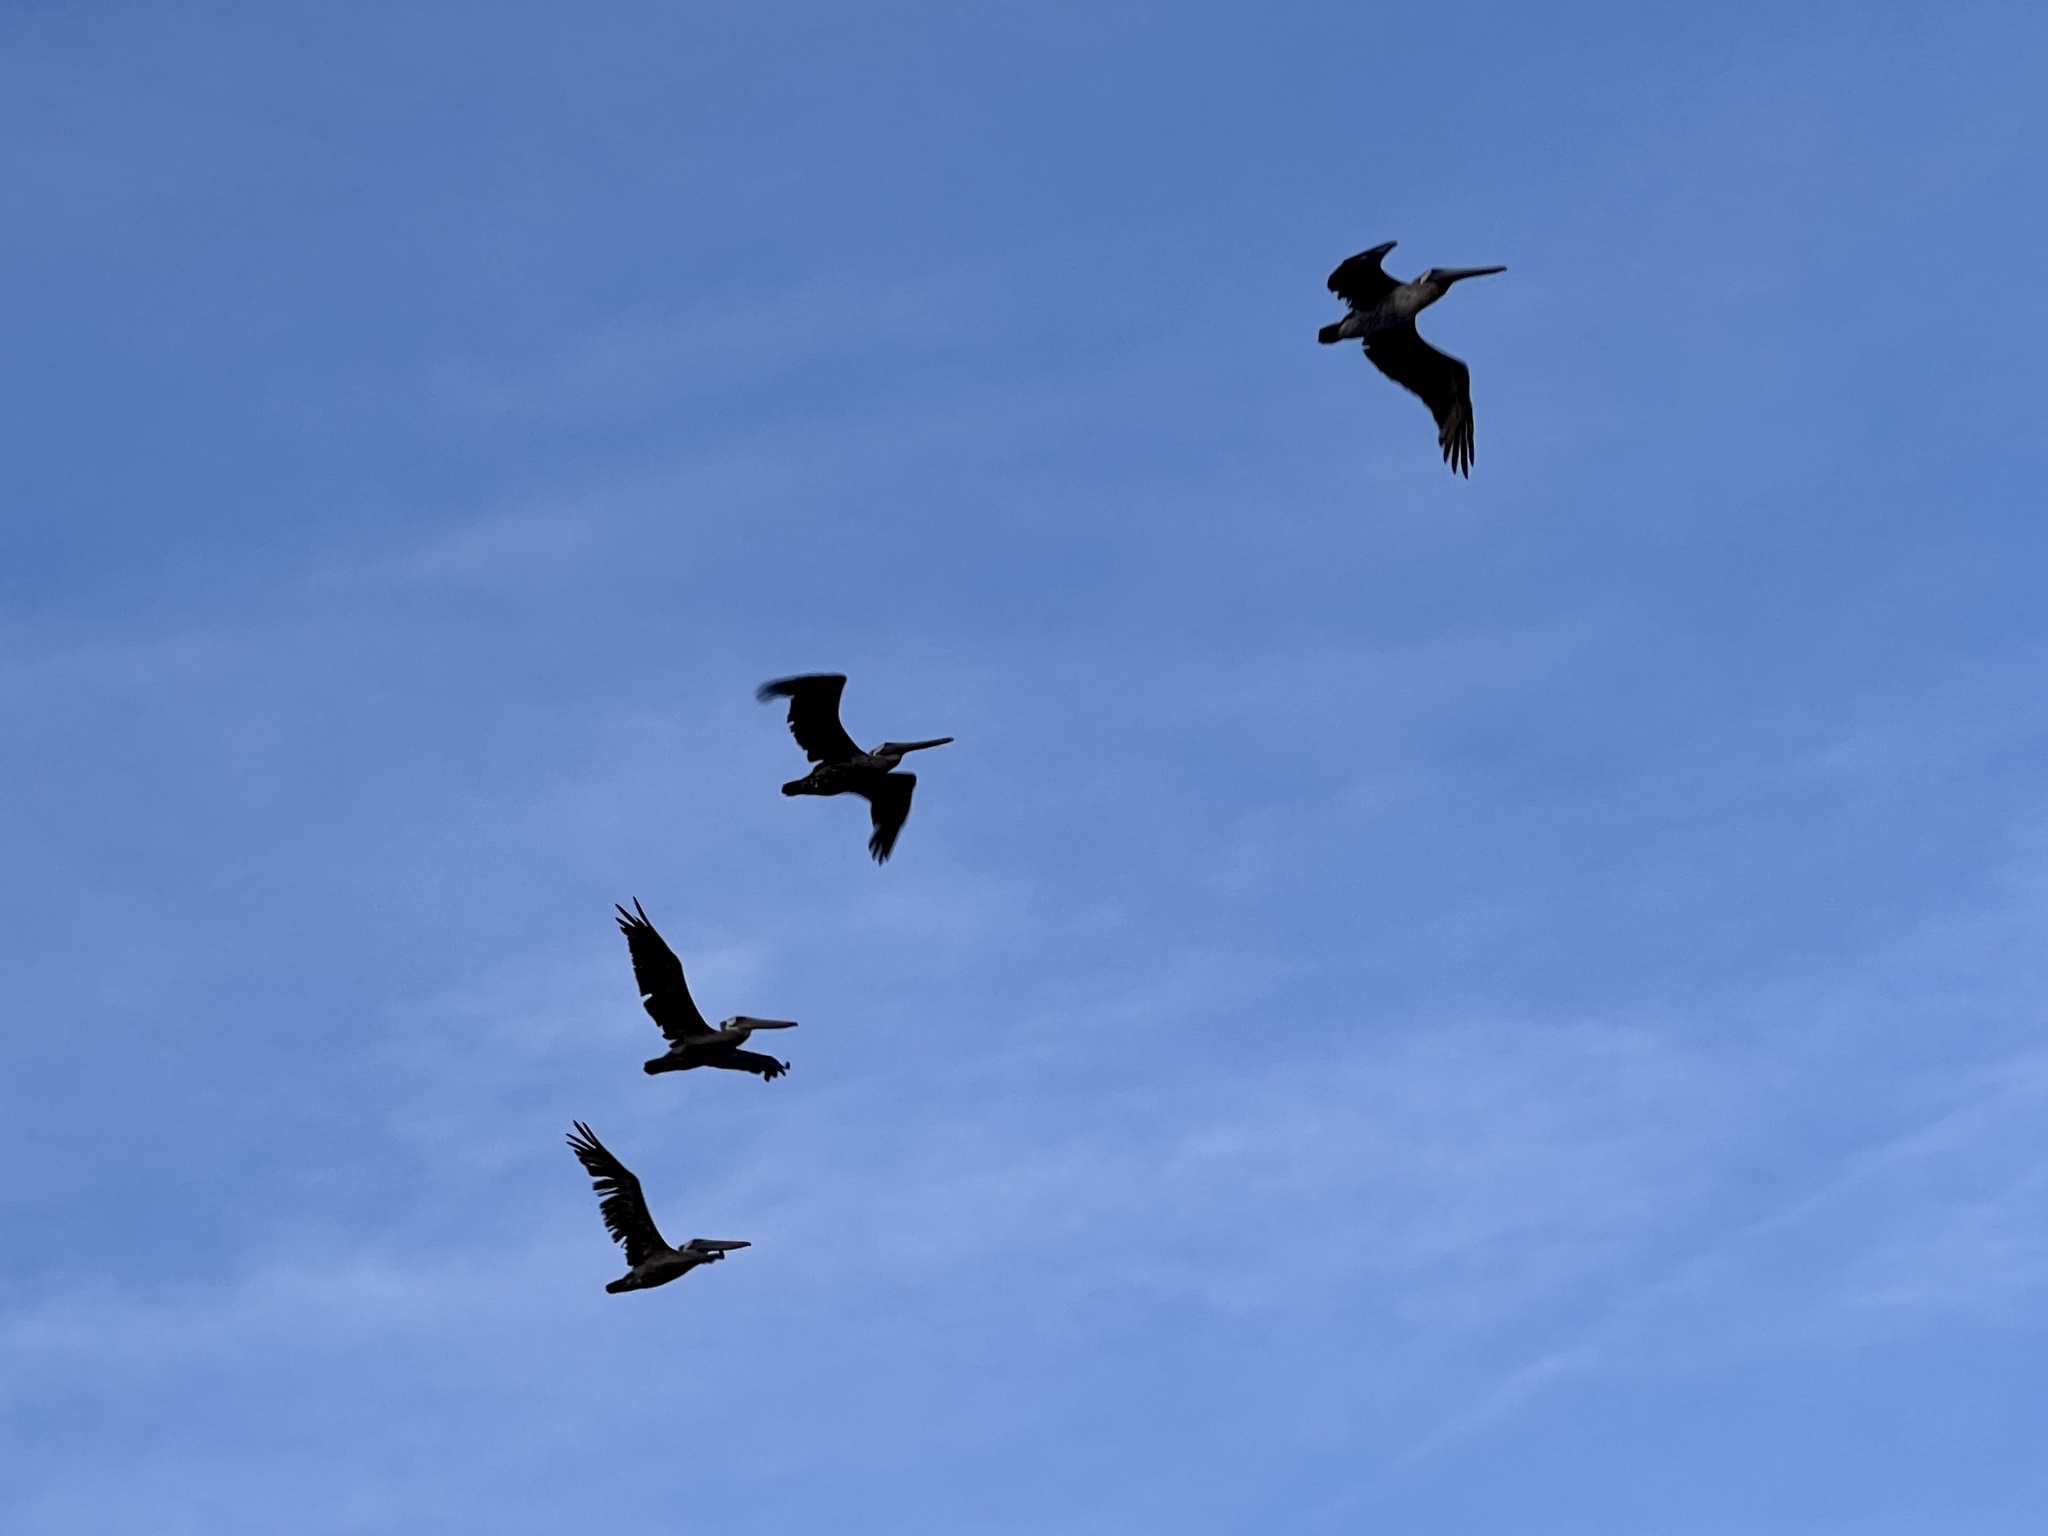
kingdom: Animalia
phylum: Chordata
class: Aves
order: Pelecaniformes
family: Pelecanidae
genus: Pelecanus
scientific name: Pelecanus occidentalis
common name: Brown pelican
